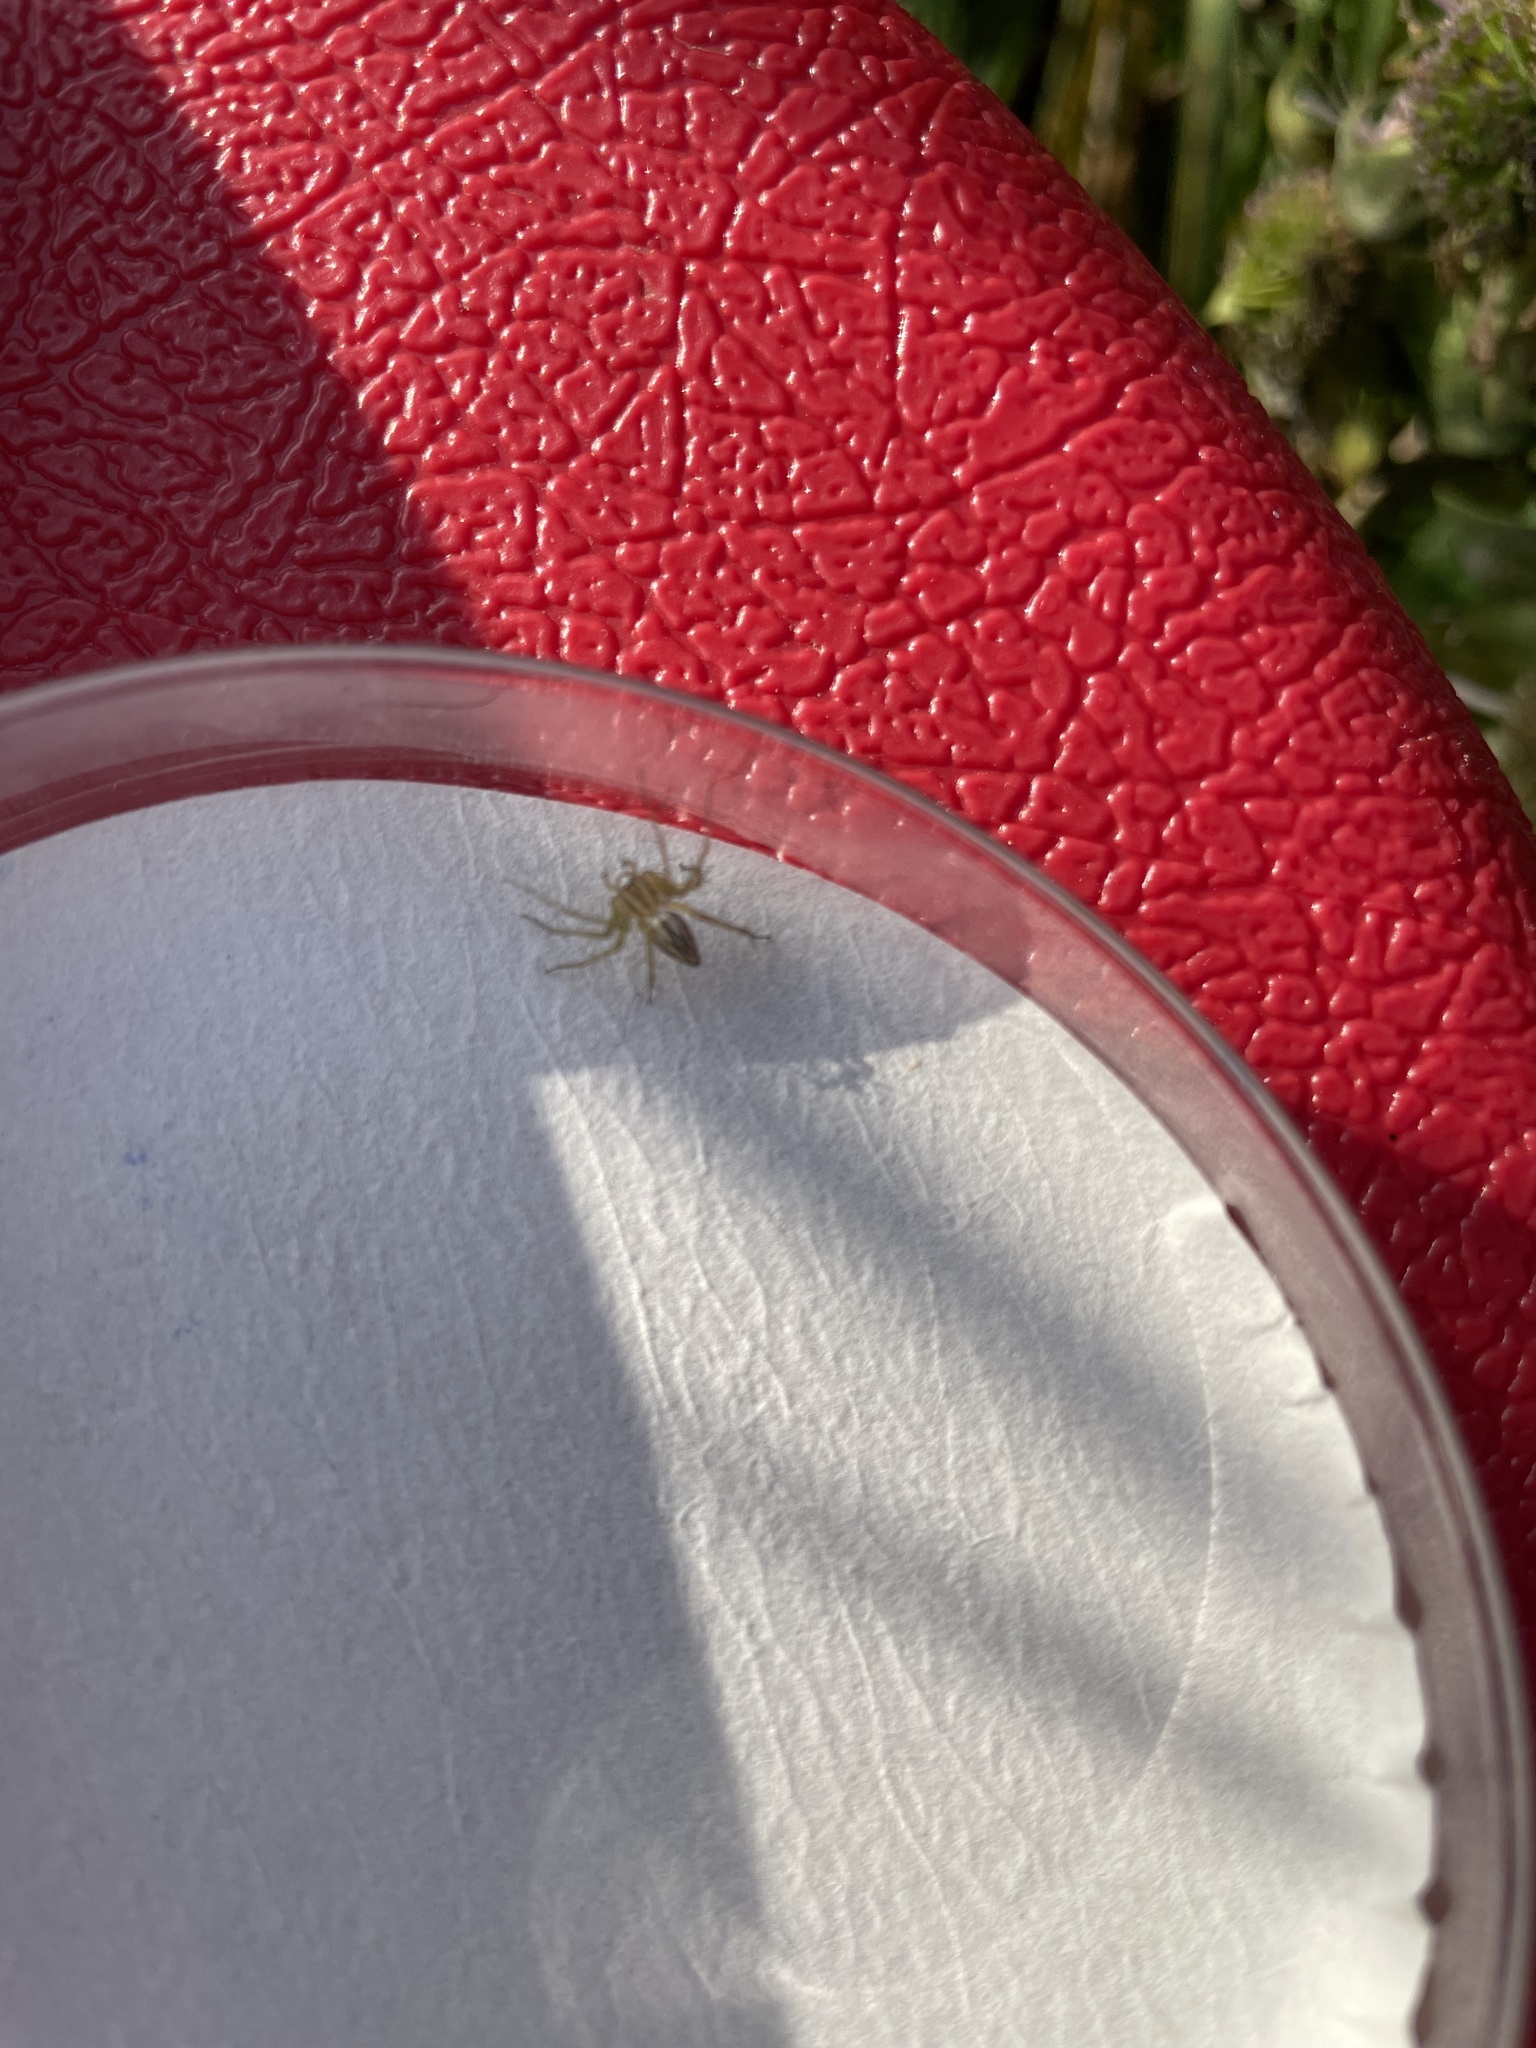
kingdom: Animalia
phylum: Arthropoda
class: Arachnida
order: Araneae
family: Oxyopidae
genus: Oxyopes
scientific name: Oxyopes salticus
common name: Lynx spiders
